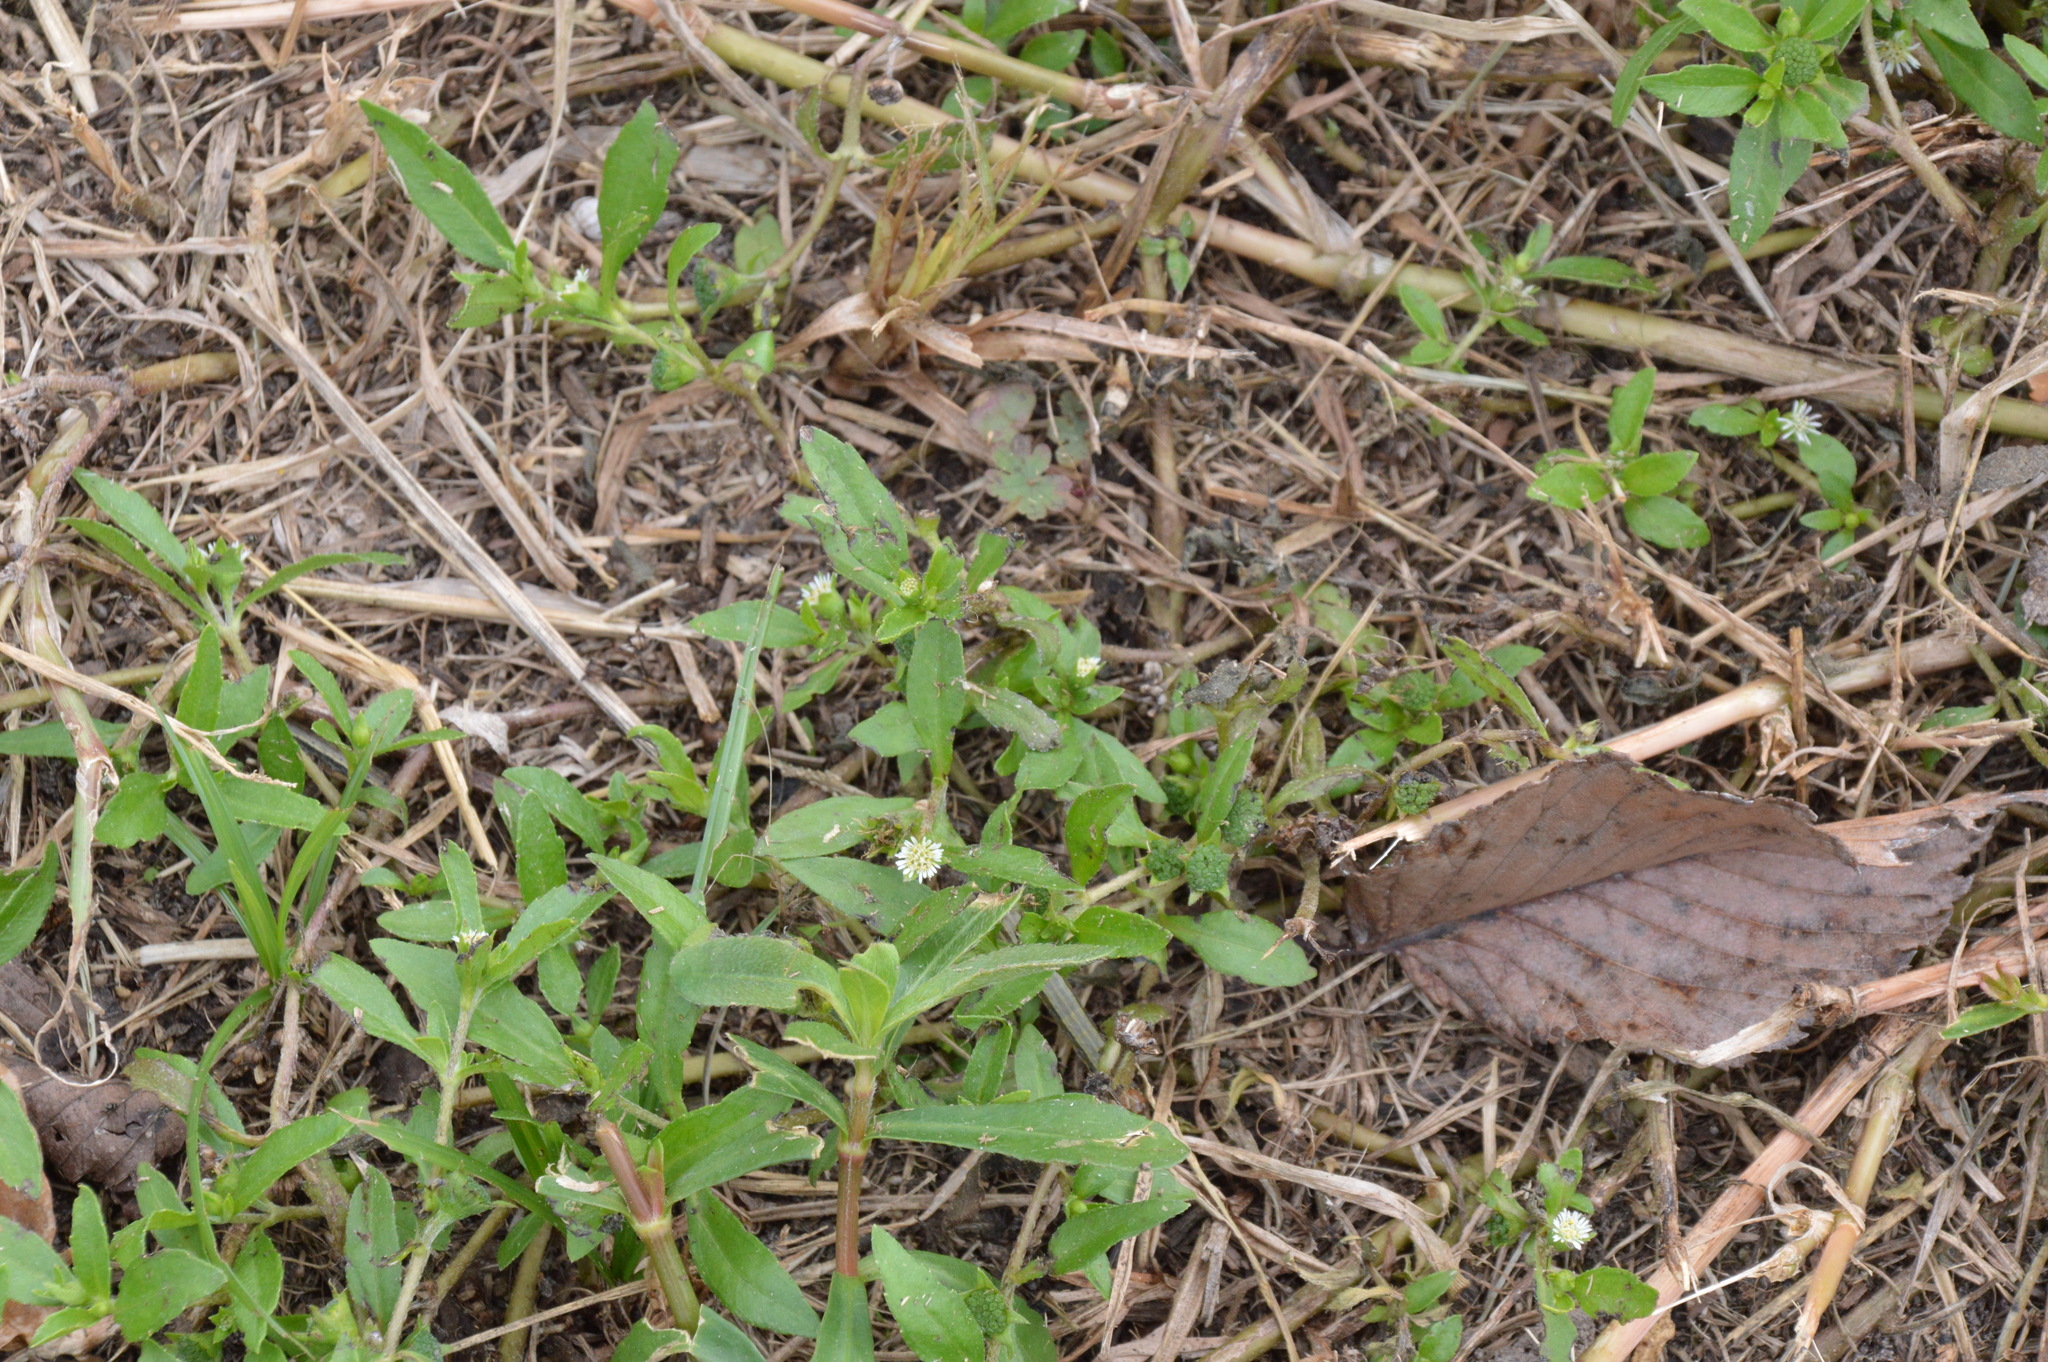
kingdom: Plantae
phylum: Tracheophyta
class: Magnoliopsida
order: Asterales
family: Asteraceae
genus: Eclipta
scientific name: Eclipta prostrata
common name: False daisy
